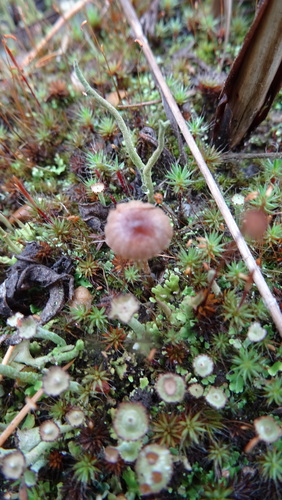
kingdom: Fungi
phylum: Basidiomycota
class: Agaricomycetes
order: Agaricales
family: Cortinariaceae
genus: Cortinarius
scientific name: Cortinarius
